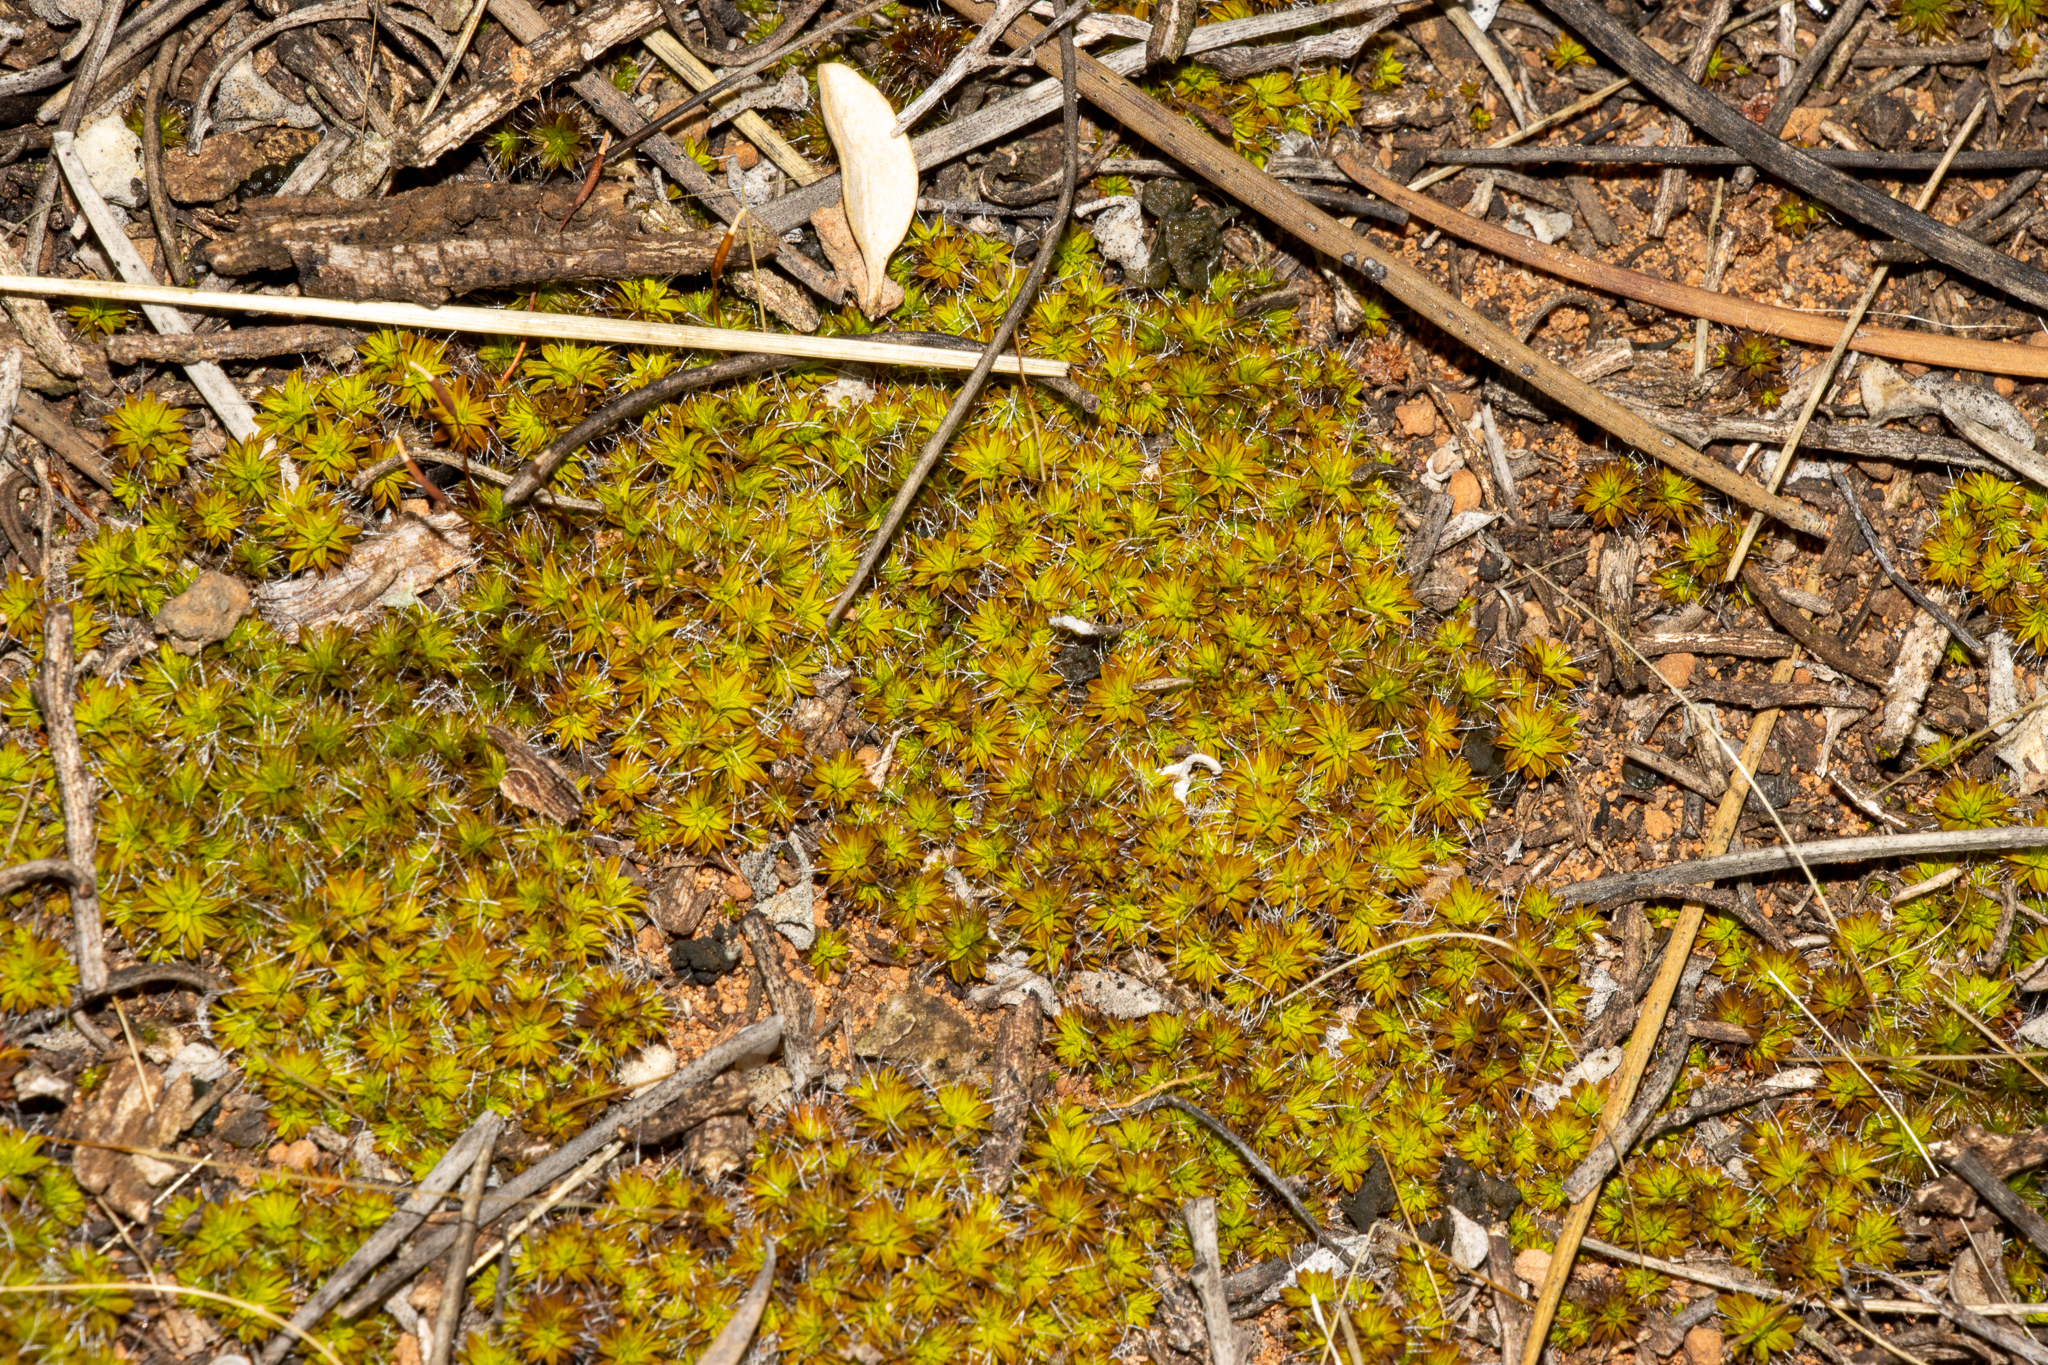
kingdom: Plantae
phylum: Bryophyta
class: Bryopsida
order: Pottiales
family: Pottiaceae
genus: Syntrichia
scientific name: Syntrichia ruralis
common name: Sidewalk screw moss
